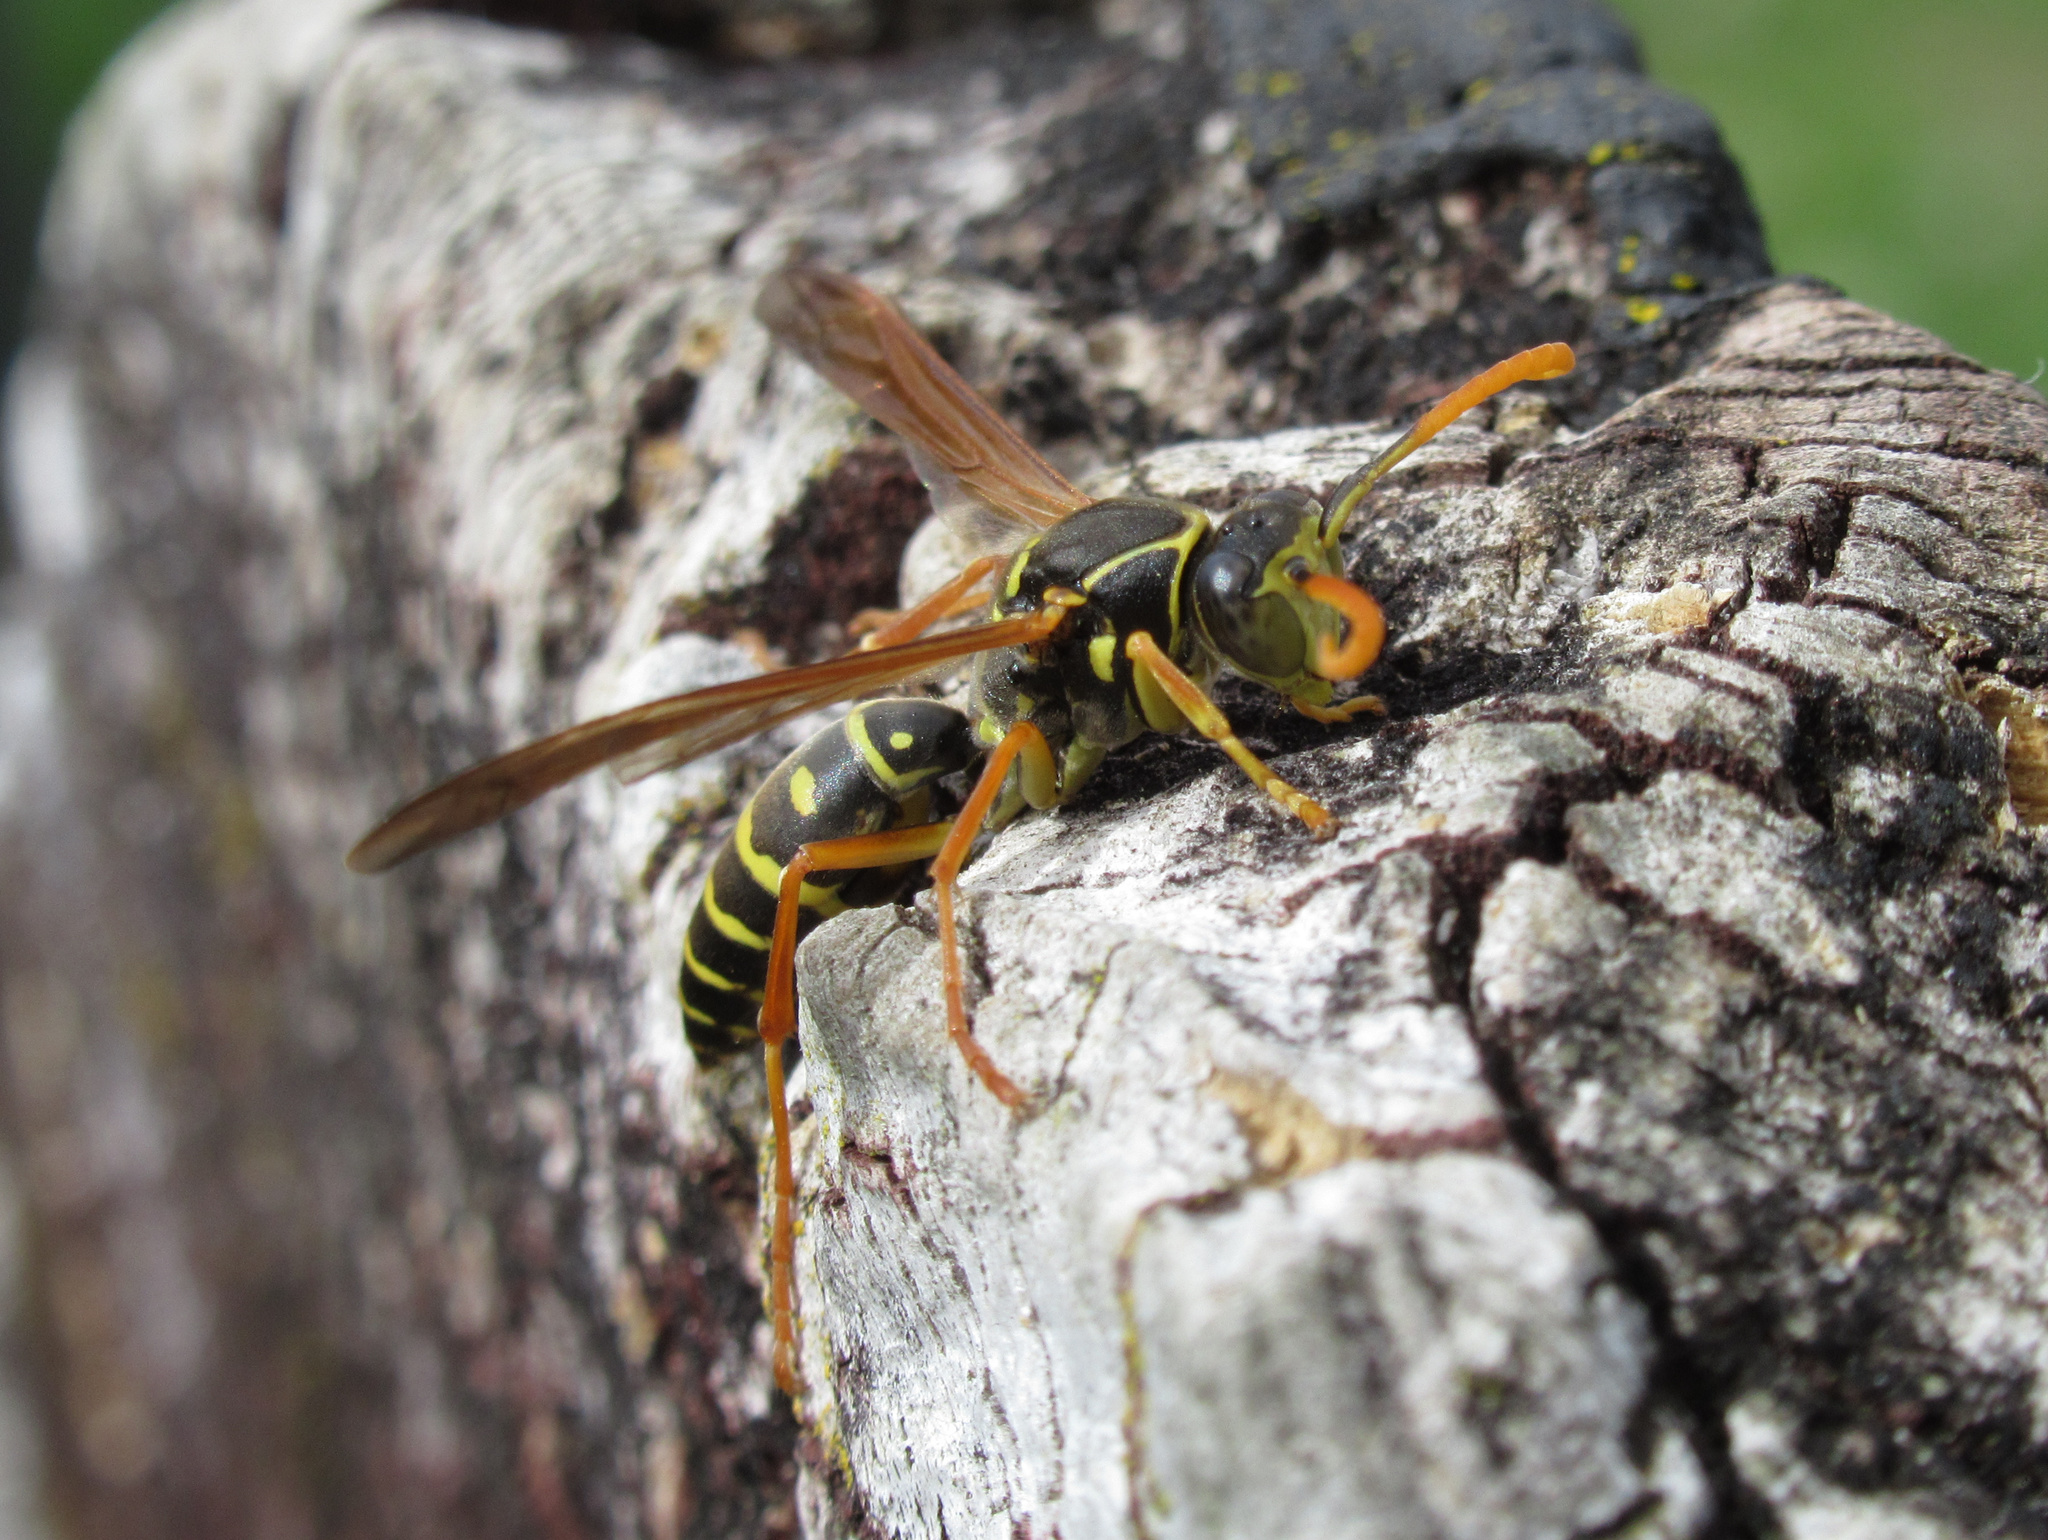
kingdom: Animalia
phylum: Arthropoda
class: Insecta
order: Hymenoptera
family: Eumenidae
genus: Polistes
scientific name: Polistes chinensis
